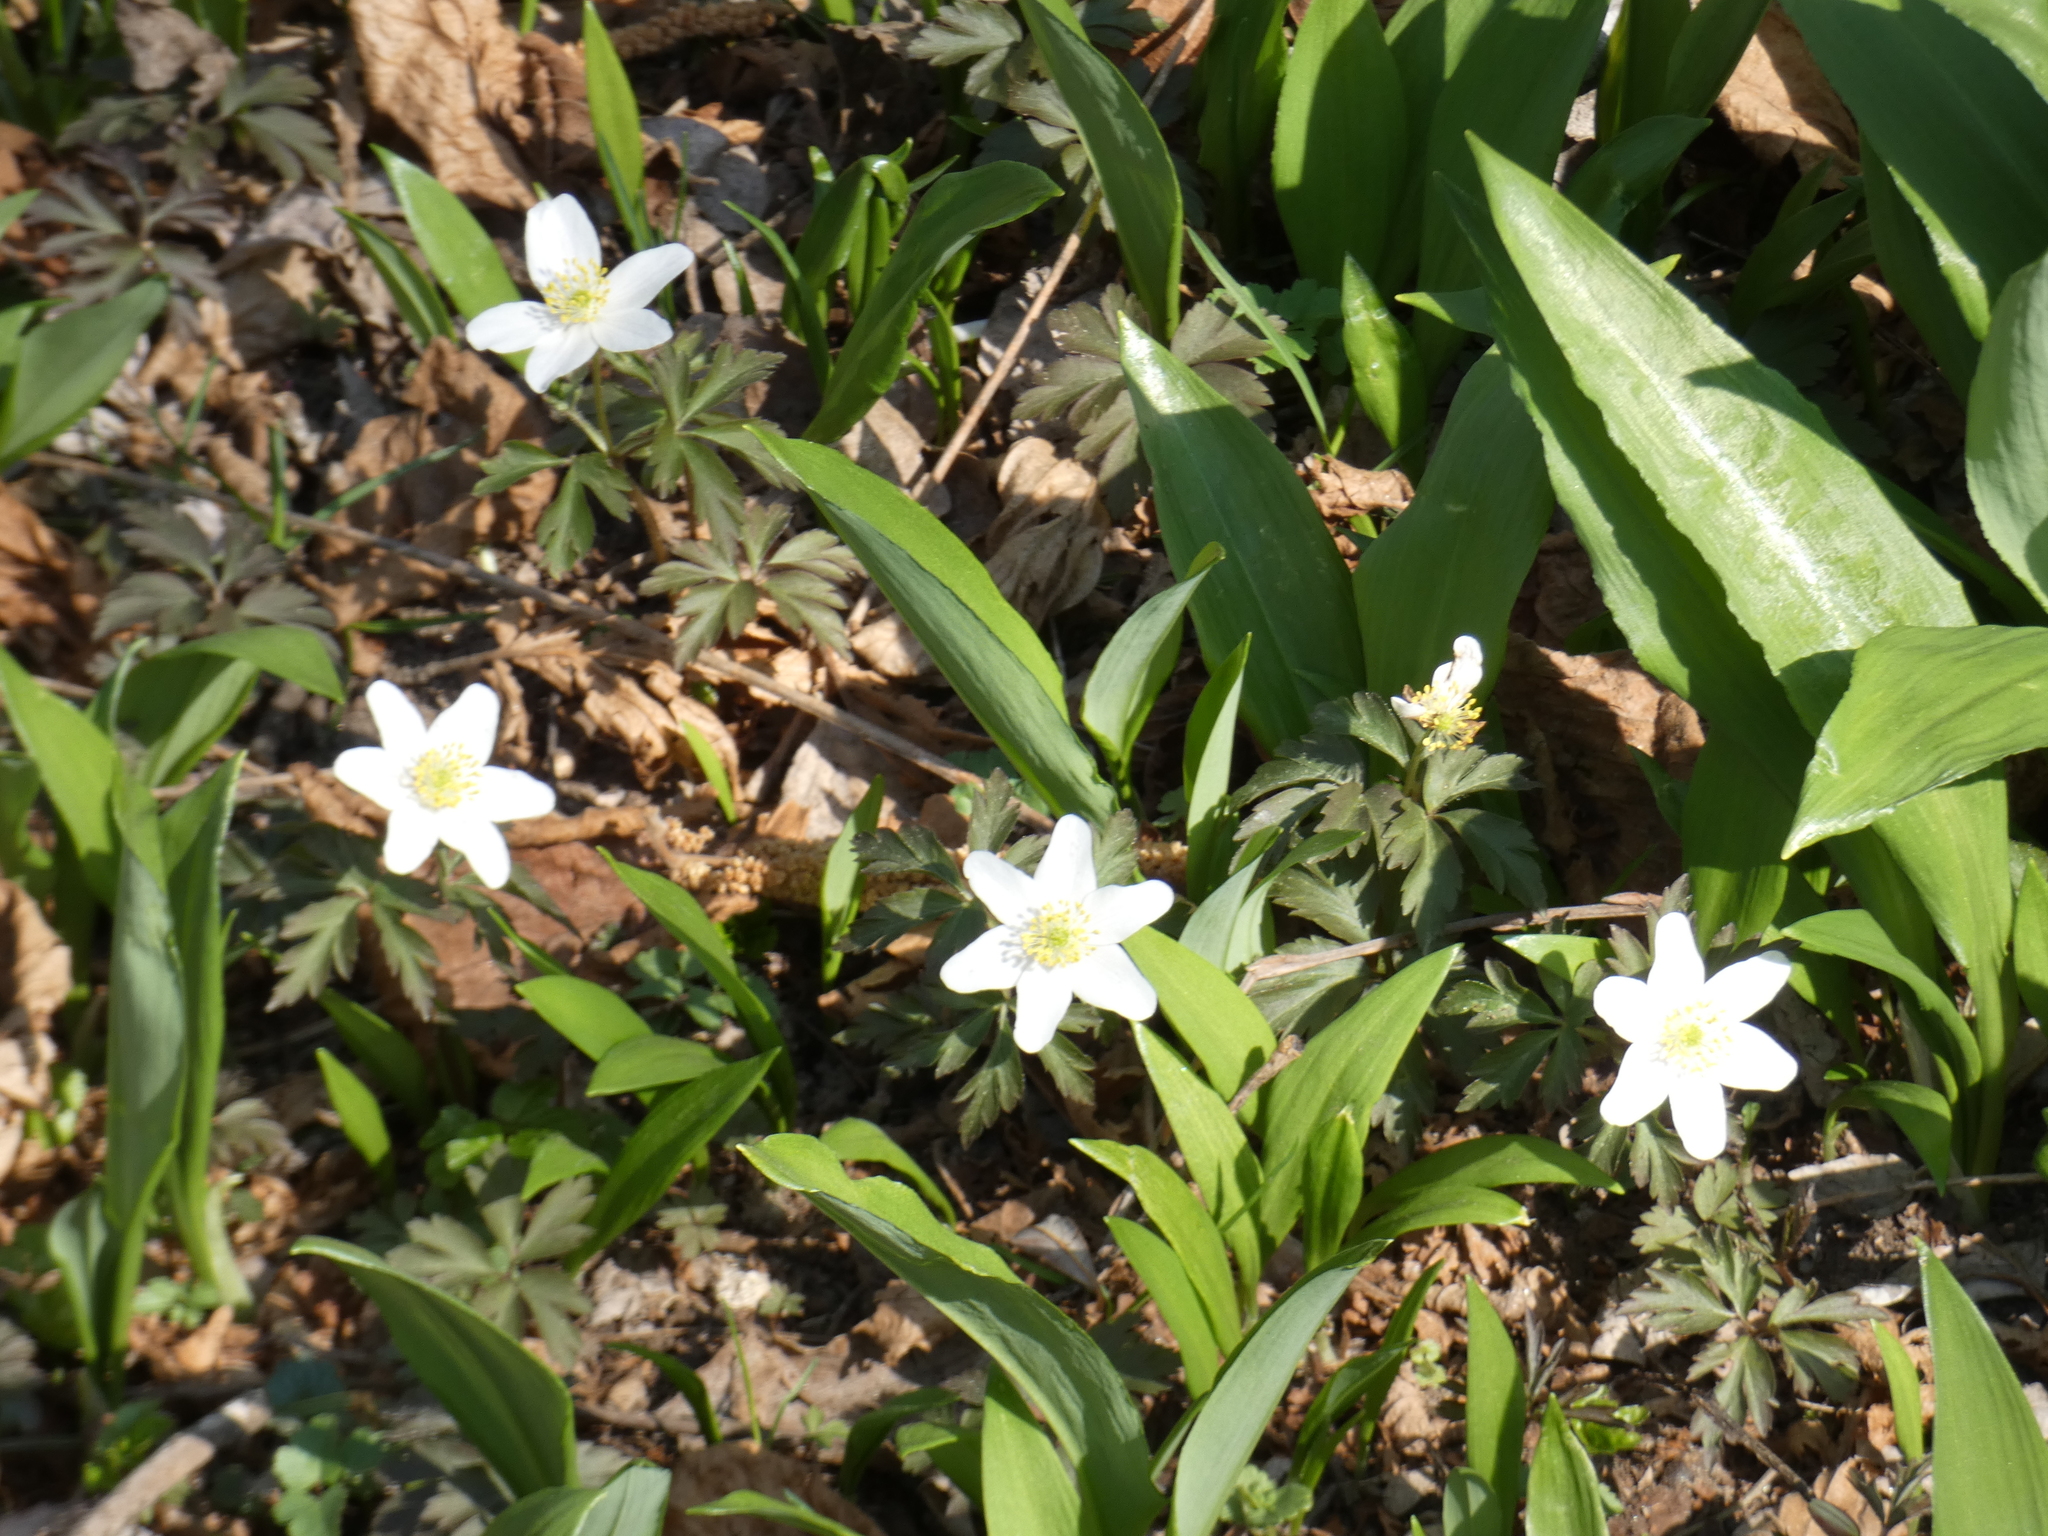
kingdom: Plantae
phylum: Tracheophyta
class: Magnoliopsida
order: Ranunculales
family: Ranunculaceae
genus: Anemone
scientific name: Anemone nemorosa
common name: Wood anemone
